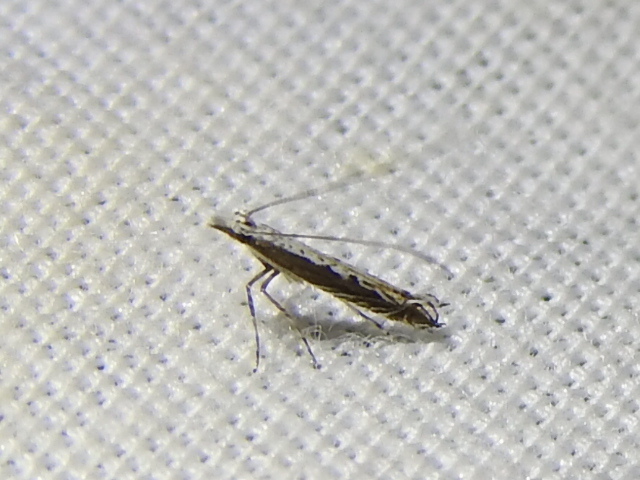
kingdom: Plantae
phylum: Rhodophyta
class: Florideophyceae
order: Gracilariales
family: Gracilariaceae
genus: Gracilaria
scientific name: Gracilaria
